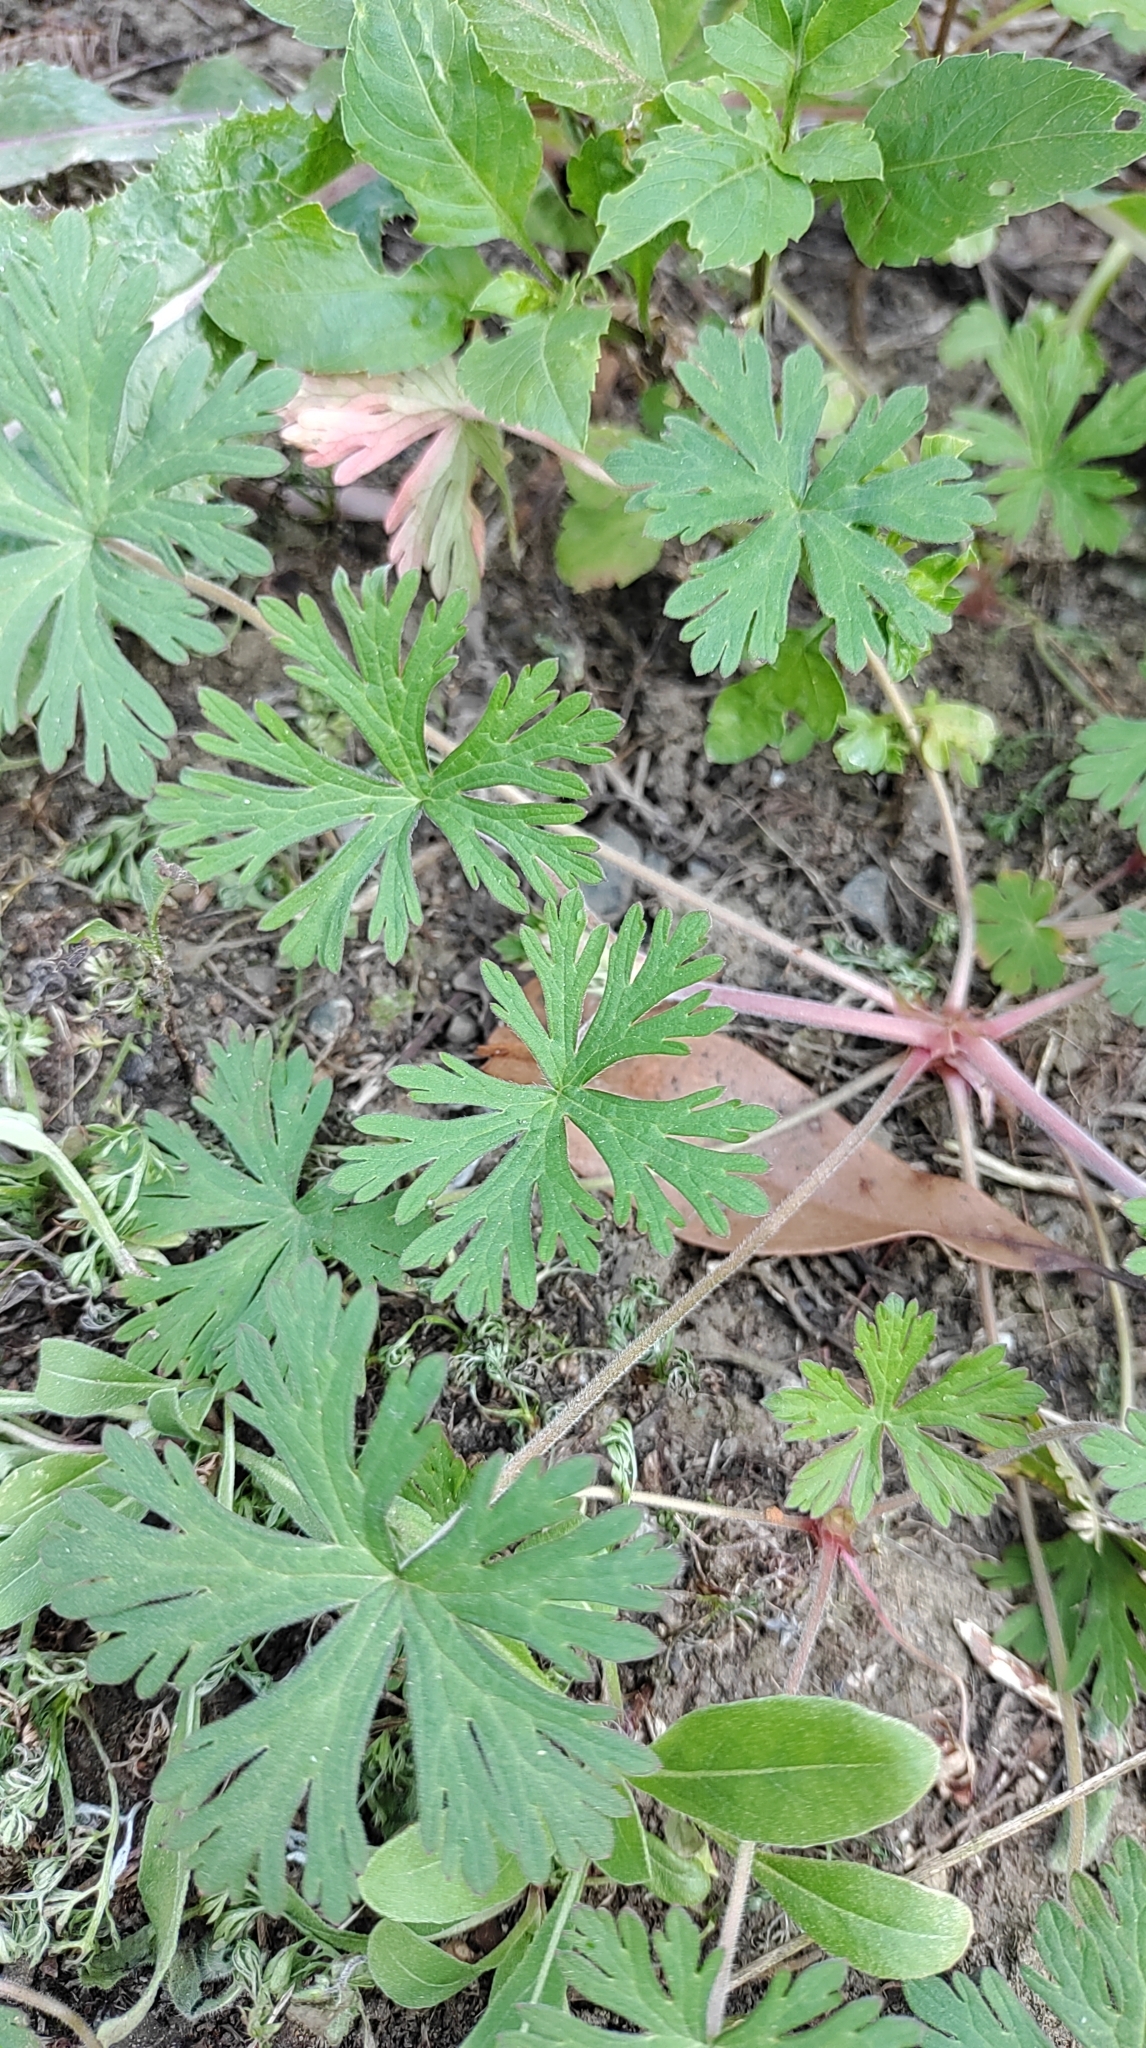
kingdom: Plantae
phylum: Tracheophyta
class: Magnoliopsida
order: Geraniales
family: Geraniaceae
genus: Geranium
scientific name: Geranium carolinianum
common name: Carolina crane's-bill
